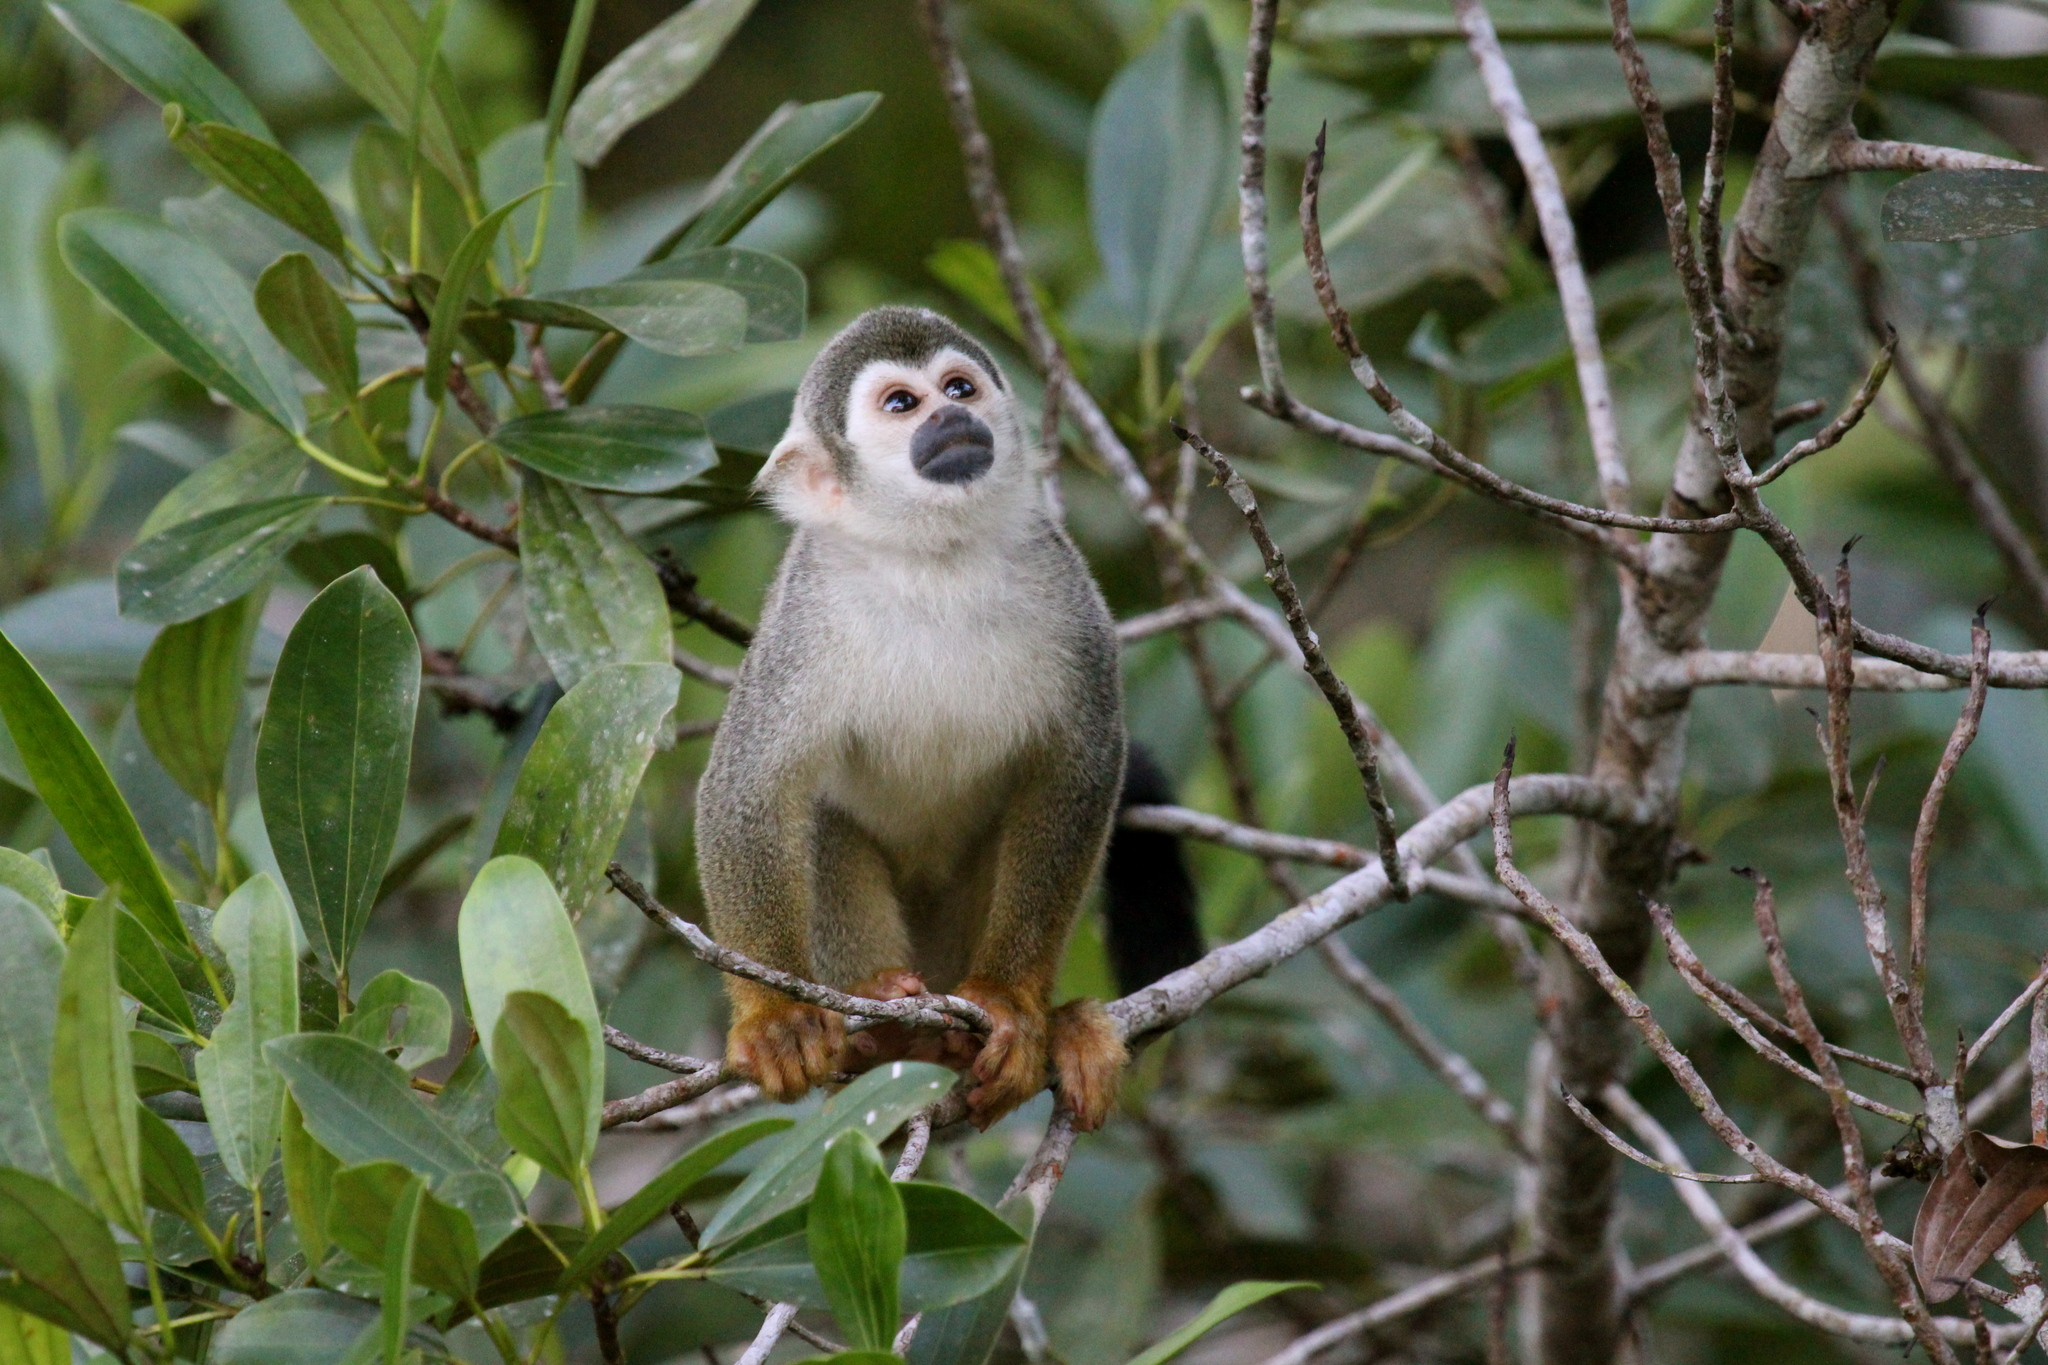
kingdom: Animalia
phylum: Chordata
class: Mammalia
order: Primates
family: Cebidae
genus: Saimiri
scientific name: Saimiri cassiquiarensis
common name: Humboldt’s squirrel monkey
